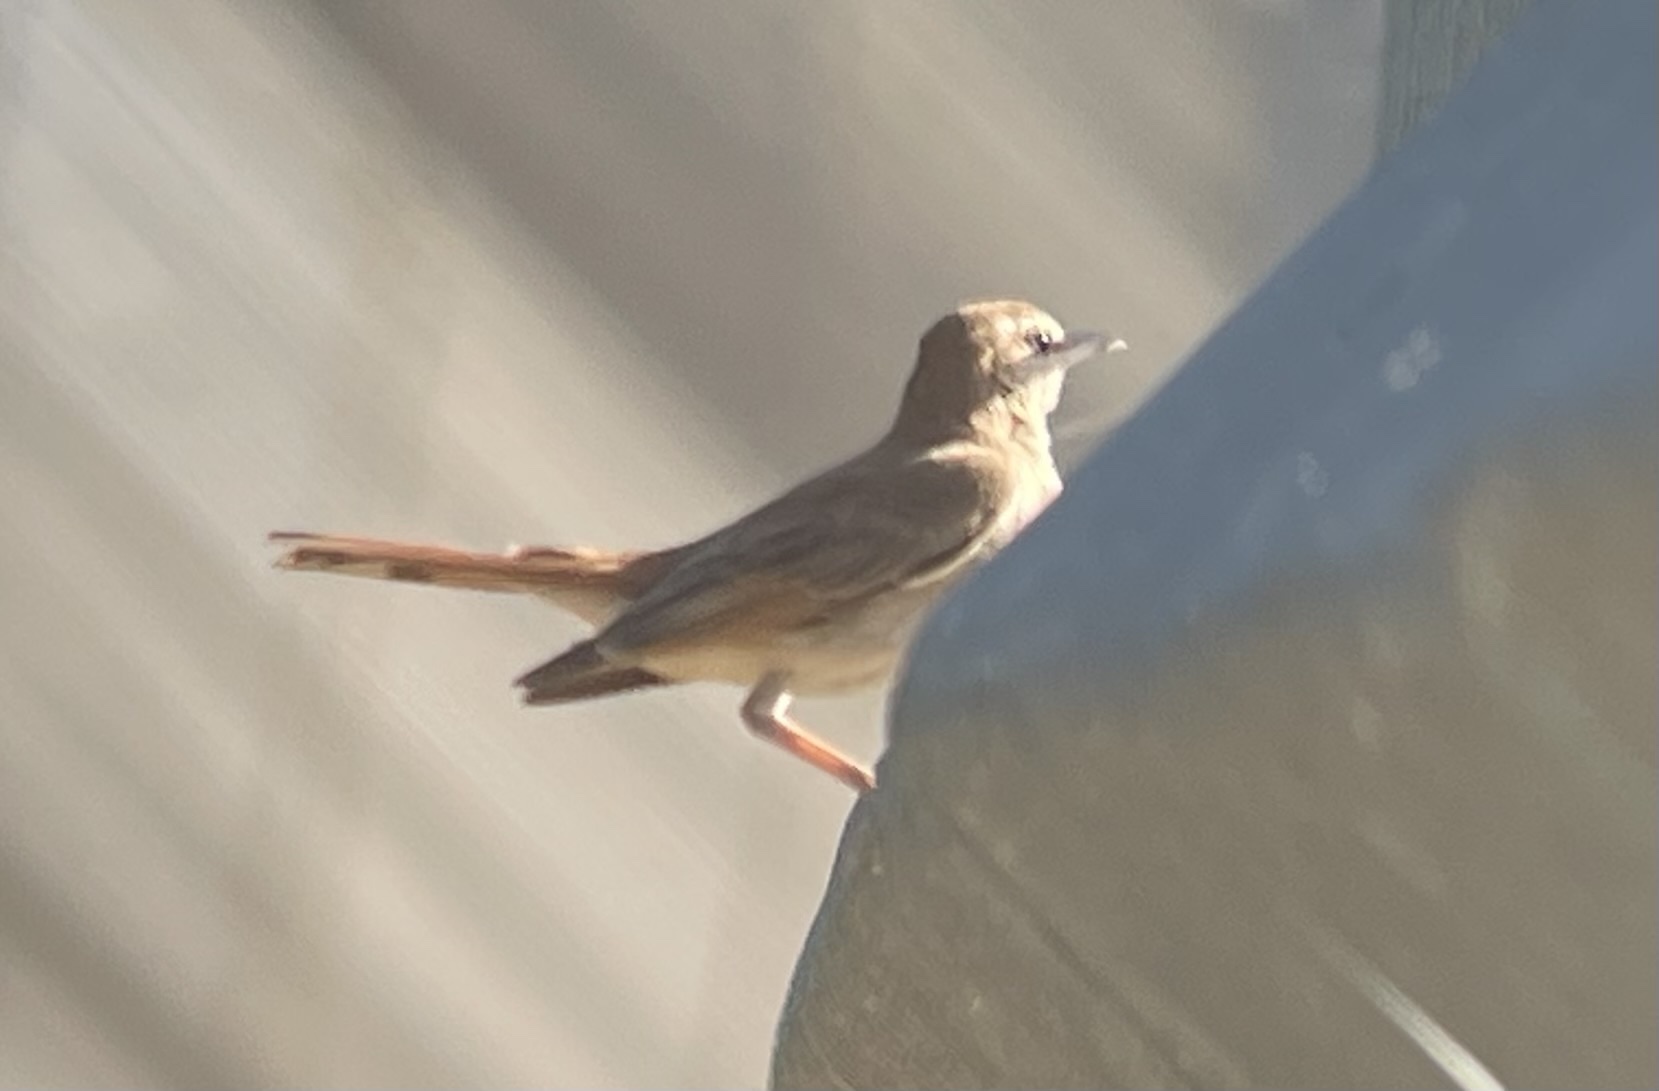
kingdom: Animalia
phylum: Chordata
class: Aves
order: Passeriformes
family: Muscicapidae
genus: Erythropygia
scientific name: Erythropygia galactotes
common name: Rufous-tailed scrub robin
